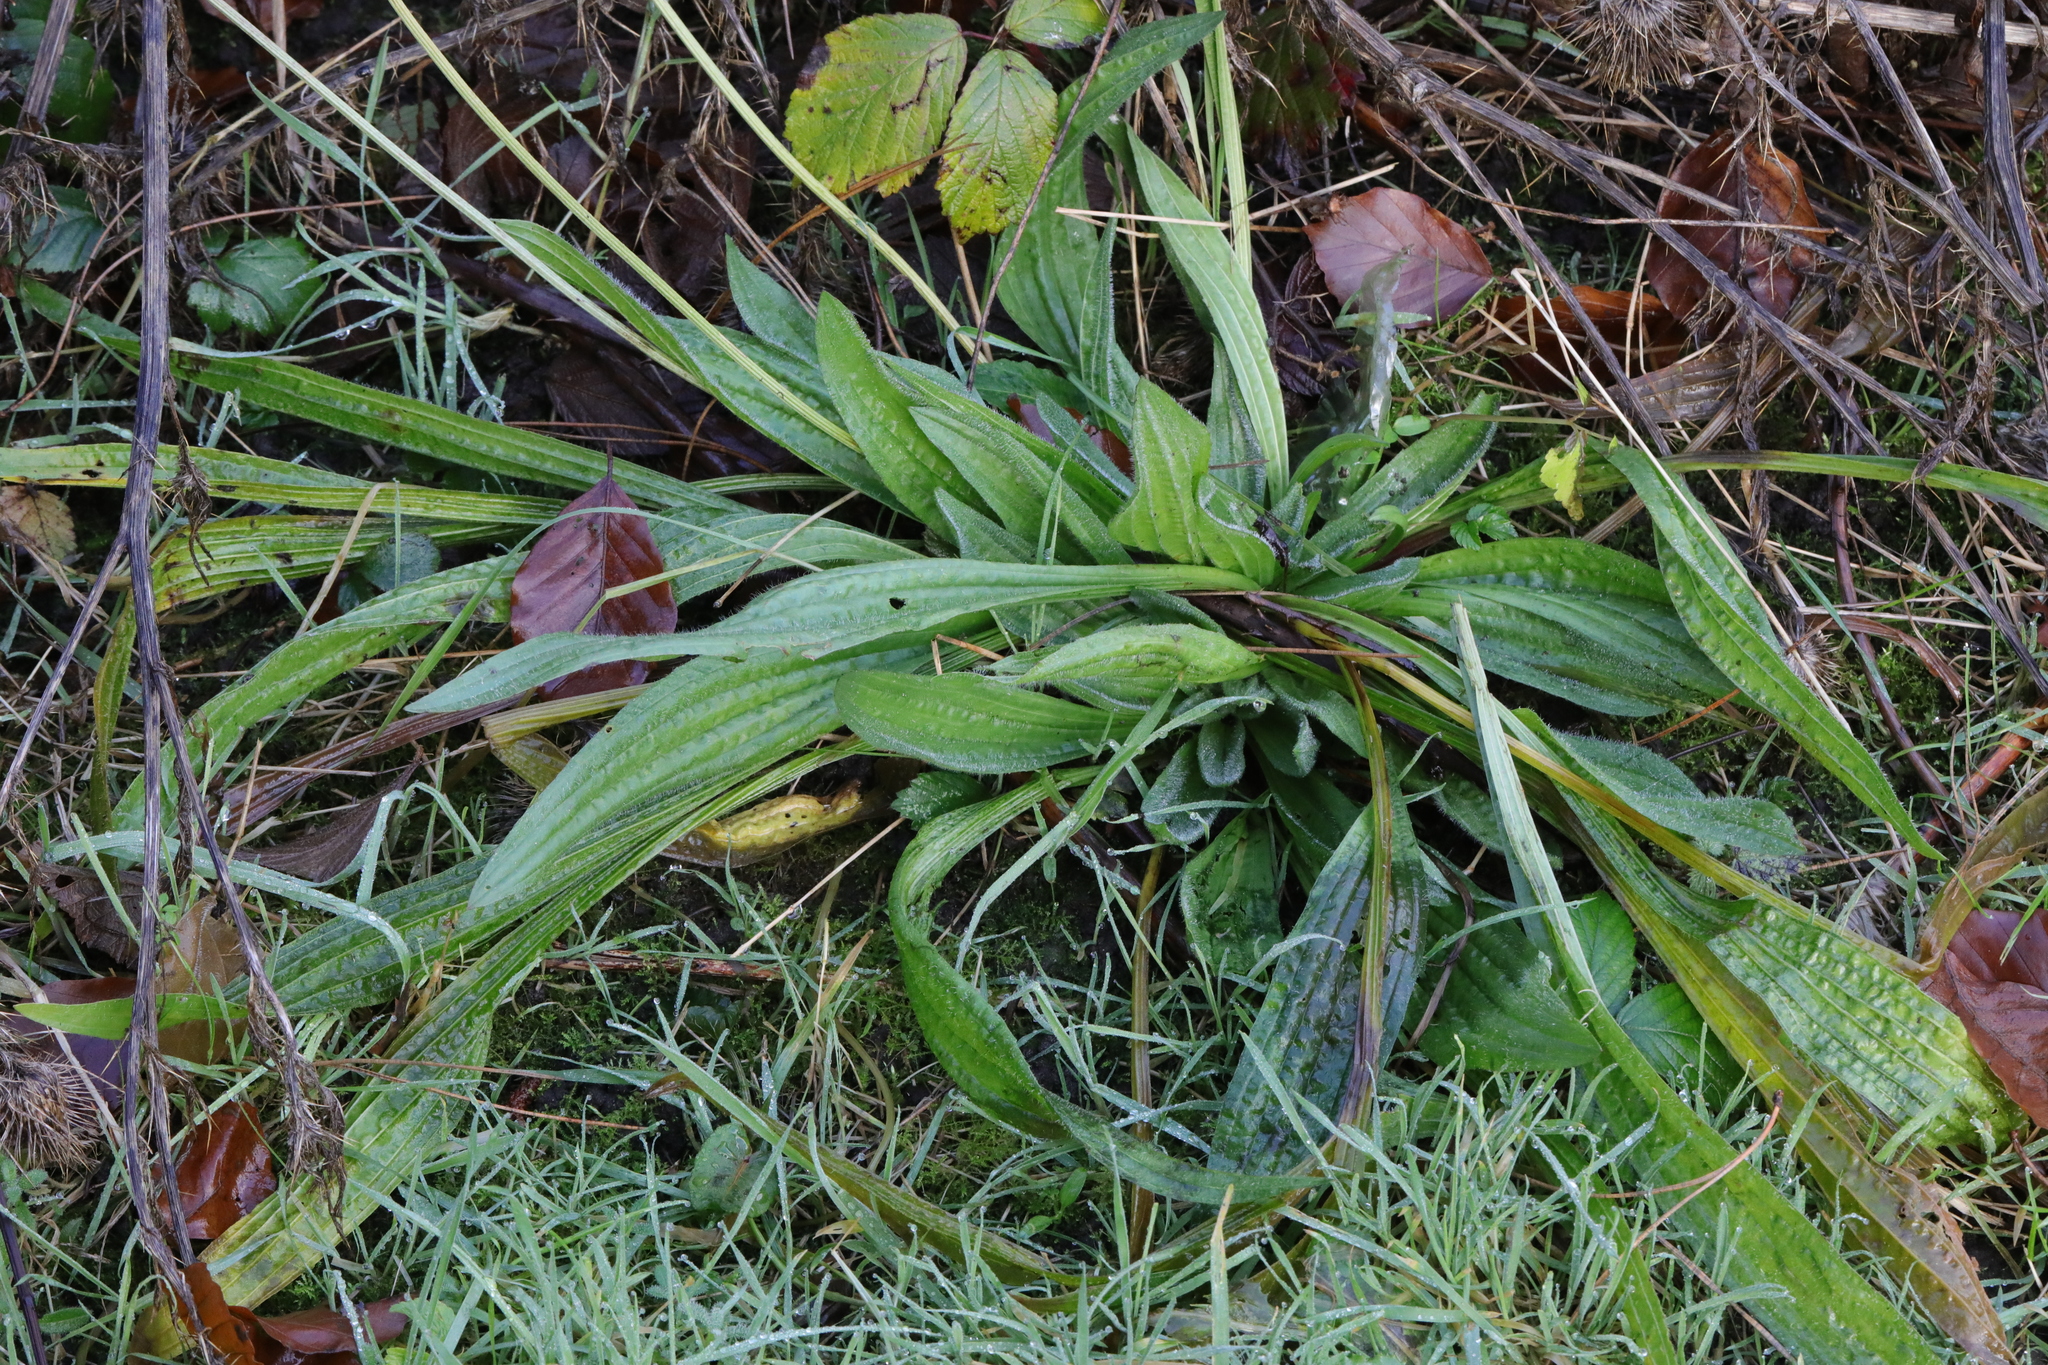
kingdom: Plantae
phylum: Tracheophyta
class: Magnoliopsida
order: Lamiales
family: Plantaginaceae
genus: Plantago
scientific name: Plantago lanceolata
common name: Ribwort plantain
